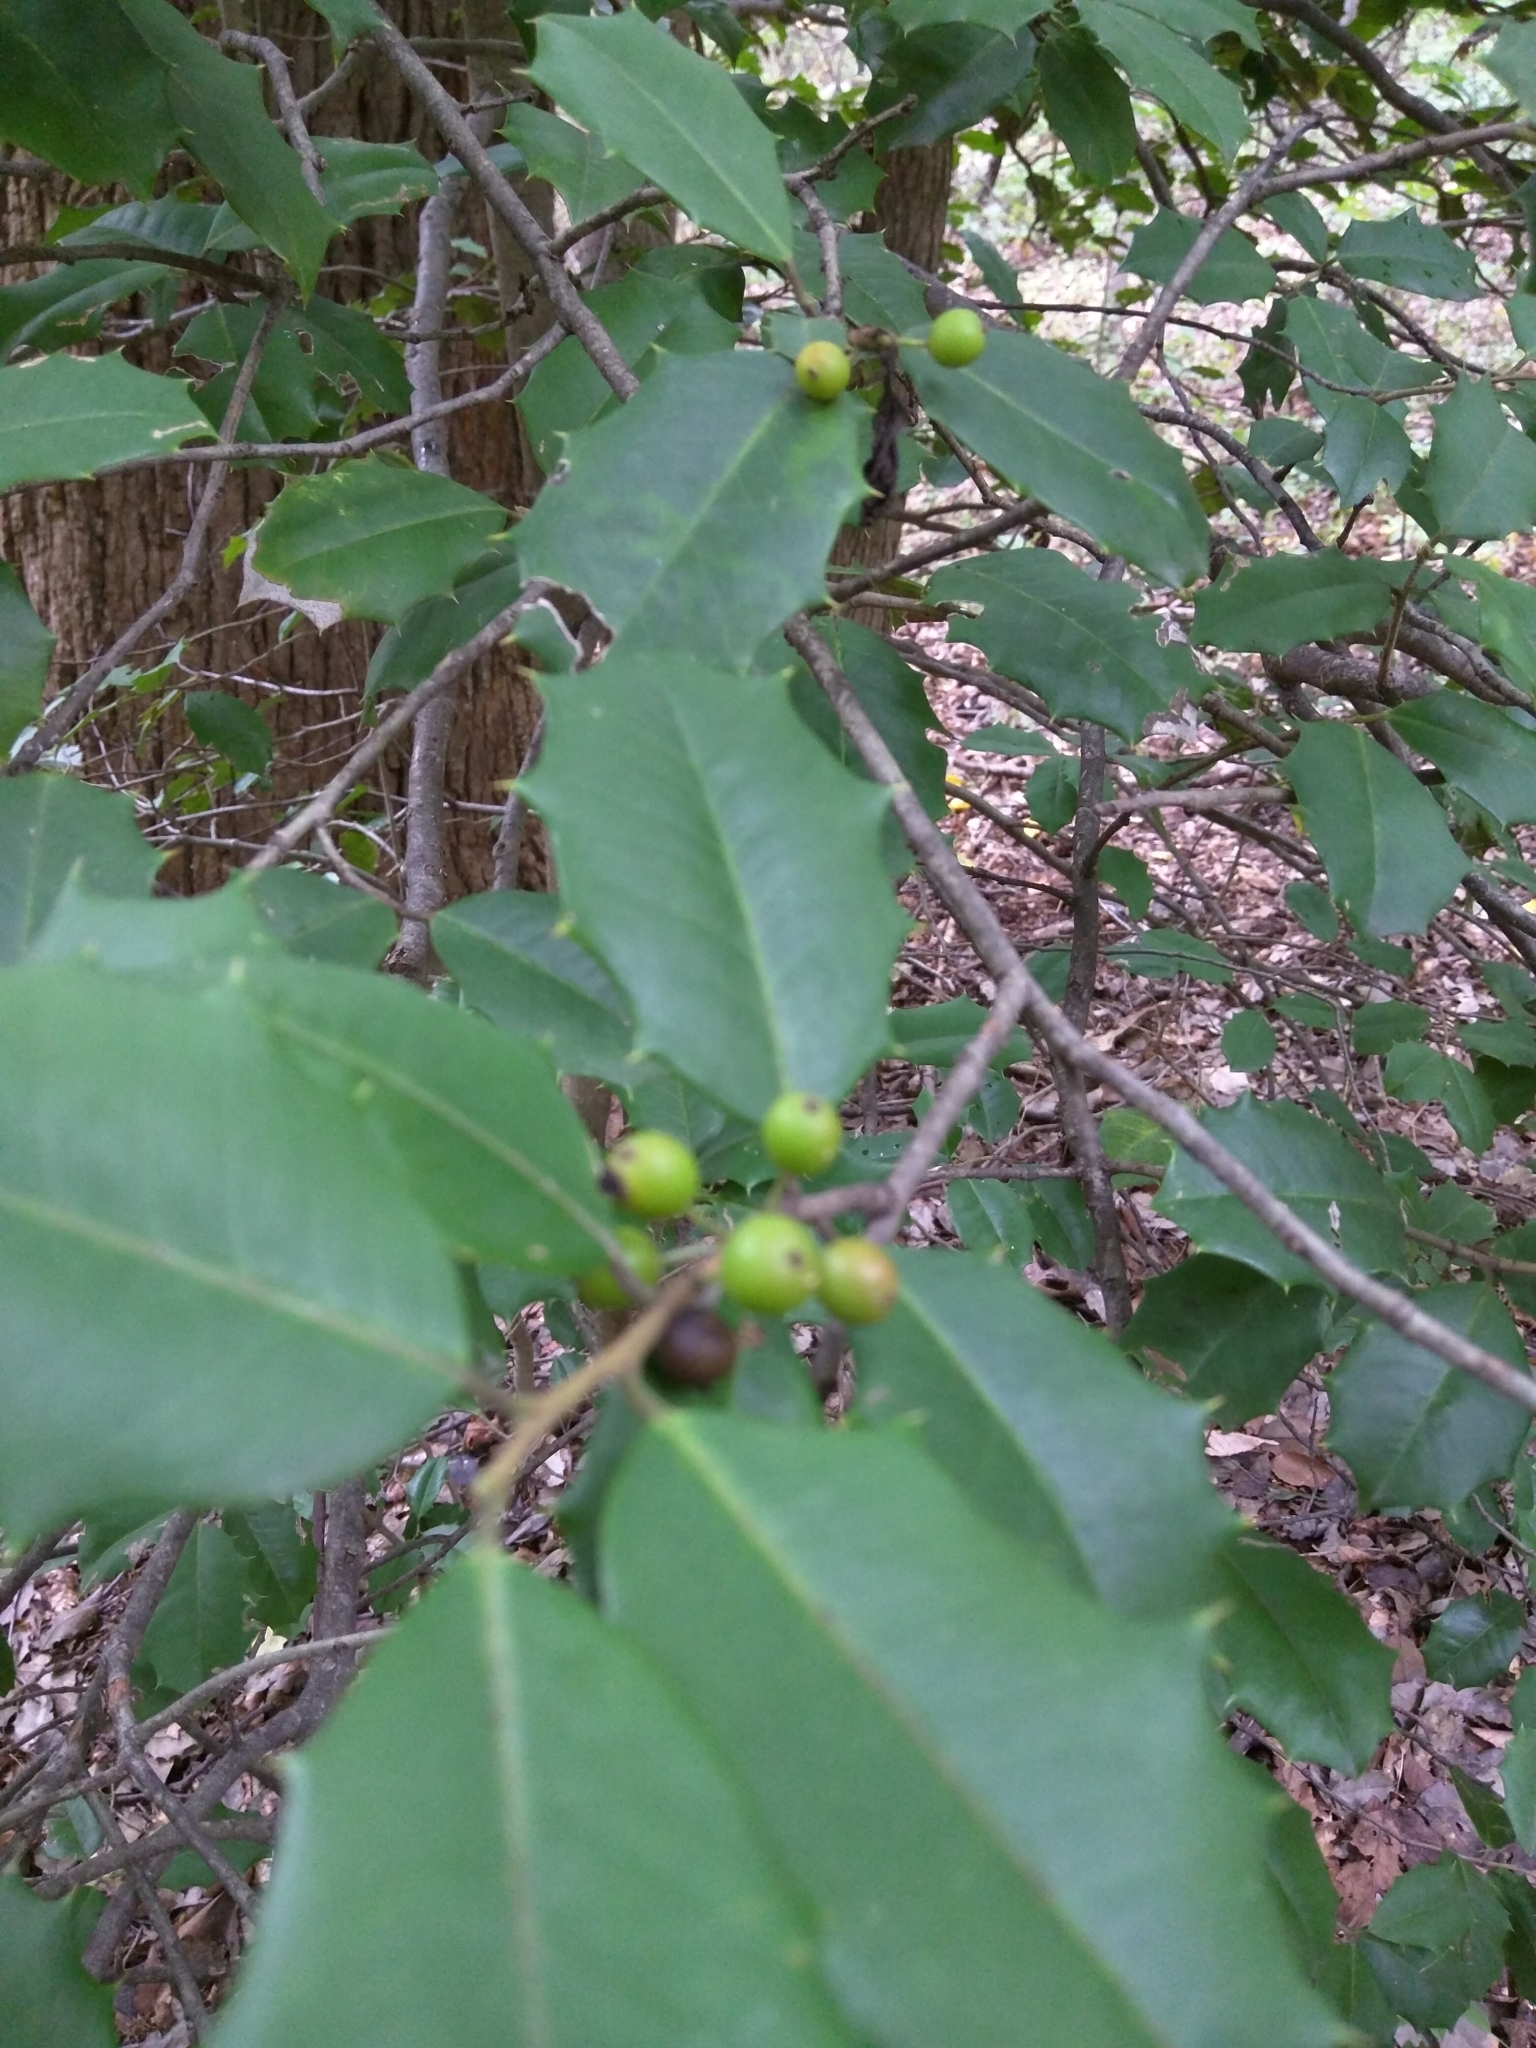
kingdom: Plantae
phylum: Tracheophyta
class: Magnoliopsida
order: Aquifoliales
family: Aquifoliaceae
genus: Ilex
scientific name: Ilex opaca
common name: American holly
